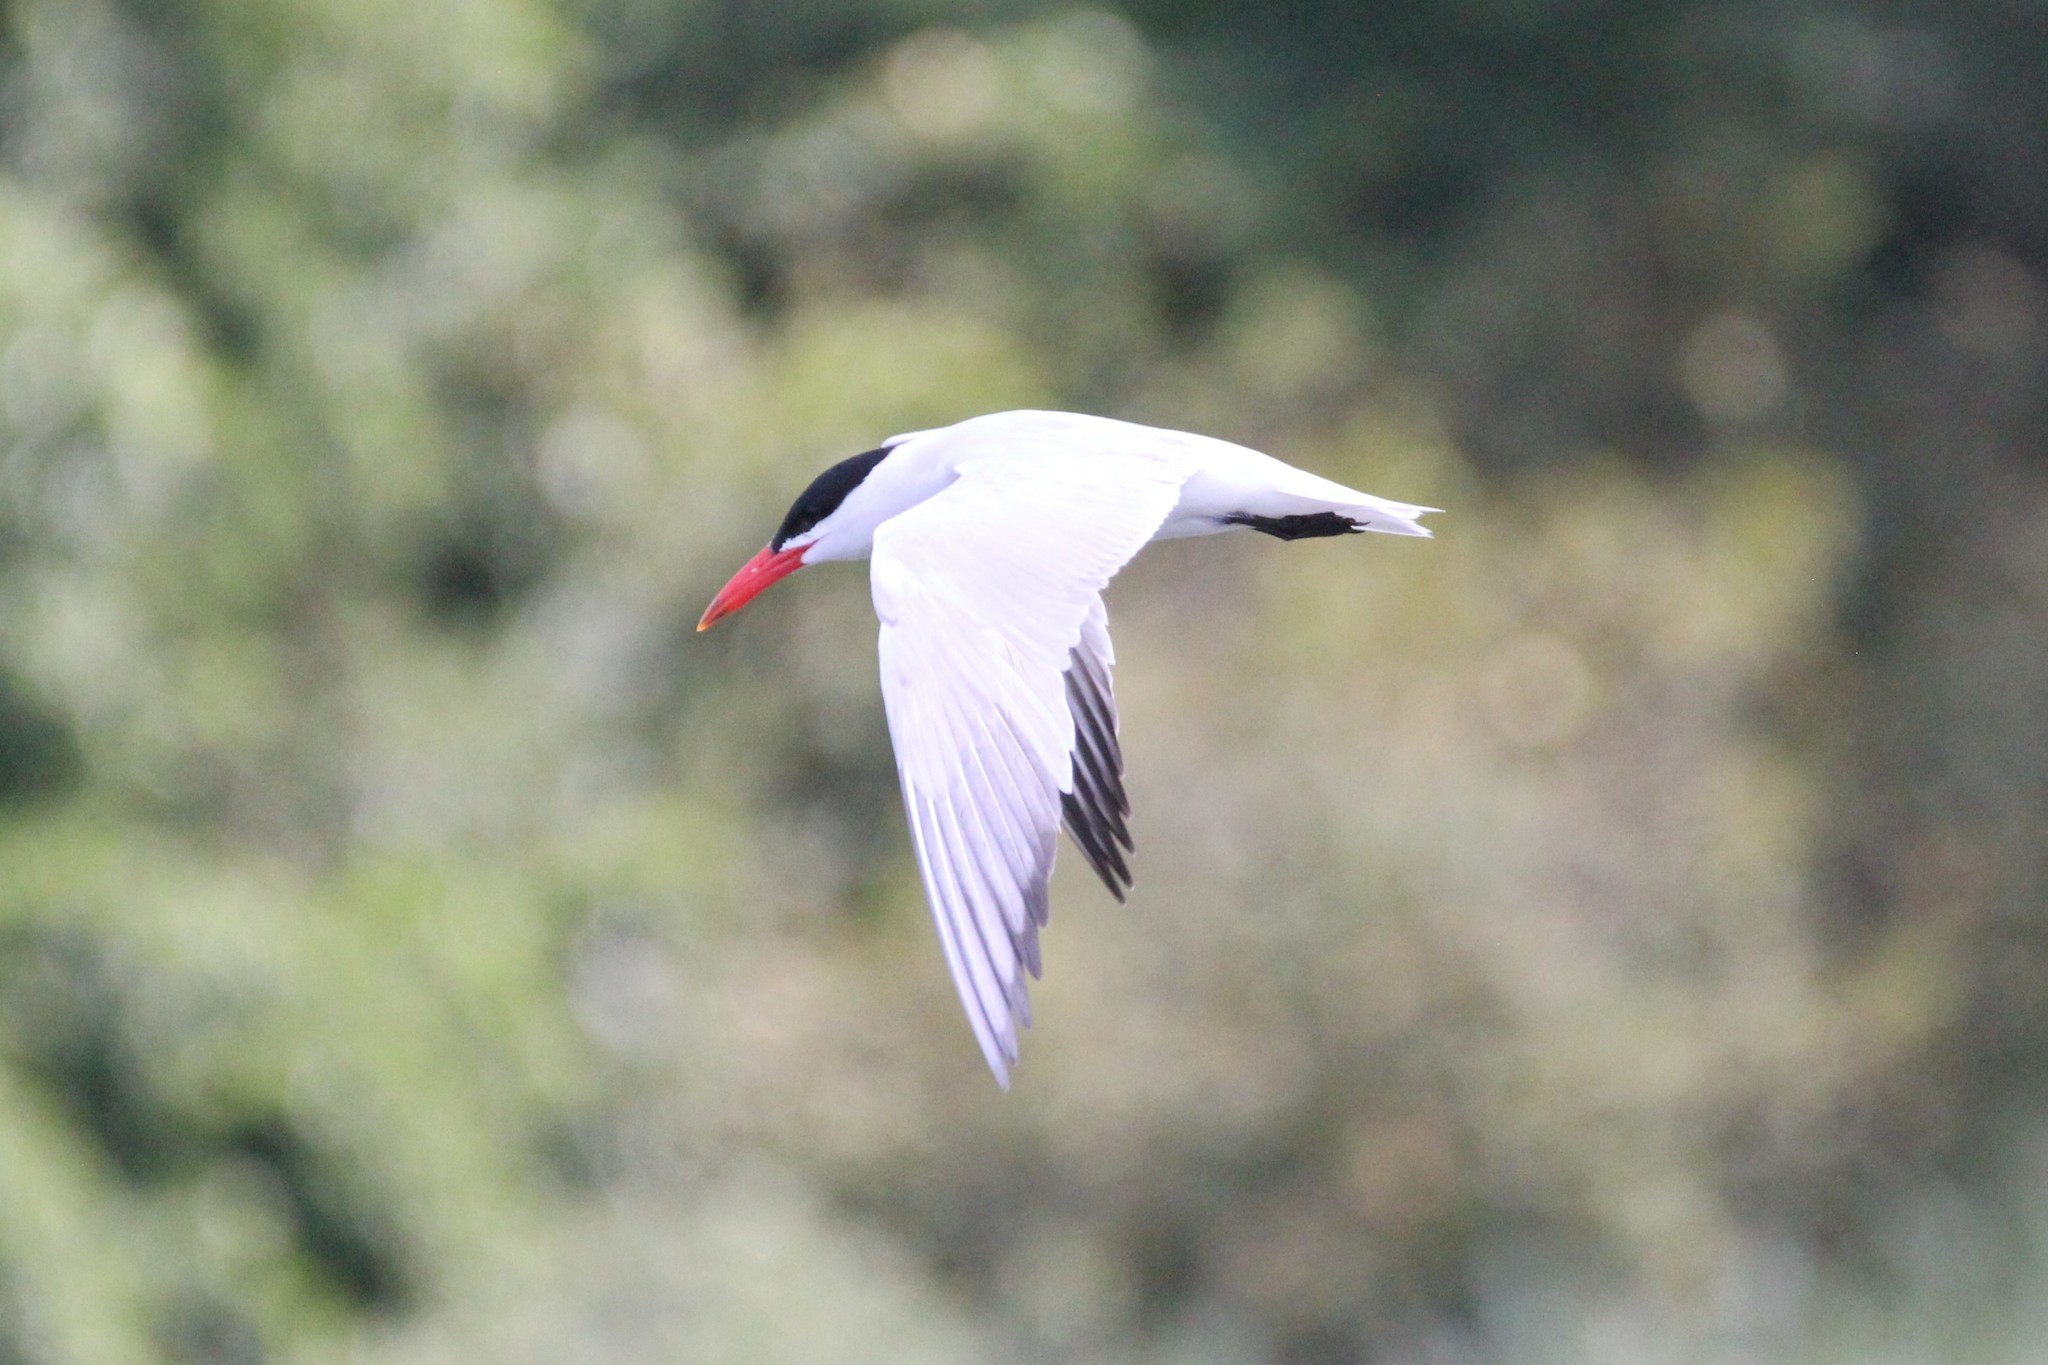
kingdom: Animalia
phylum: Chordata
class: Aves
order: Charadriiformes
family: Laridae
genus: Hydroprogne
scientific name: Hydroprogne caspia
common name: Caspian tern
